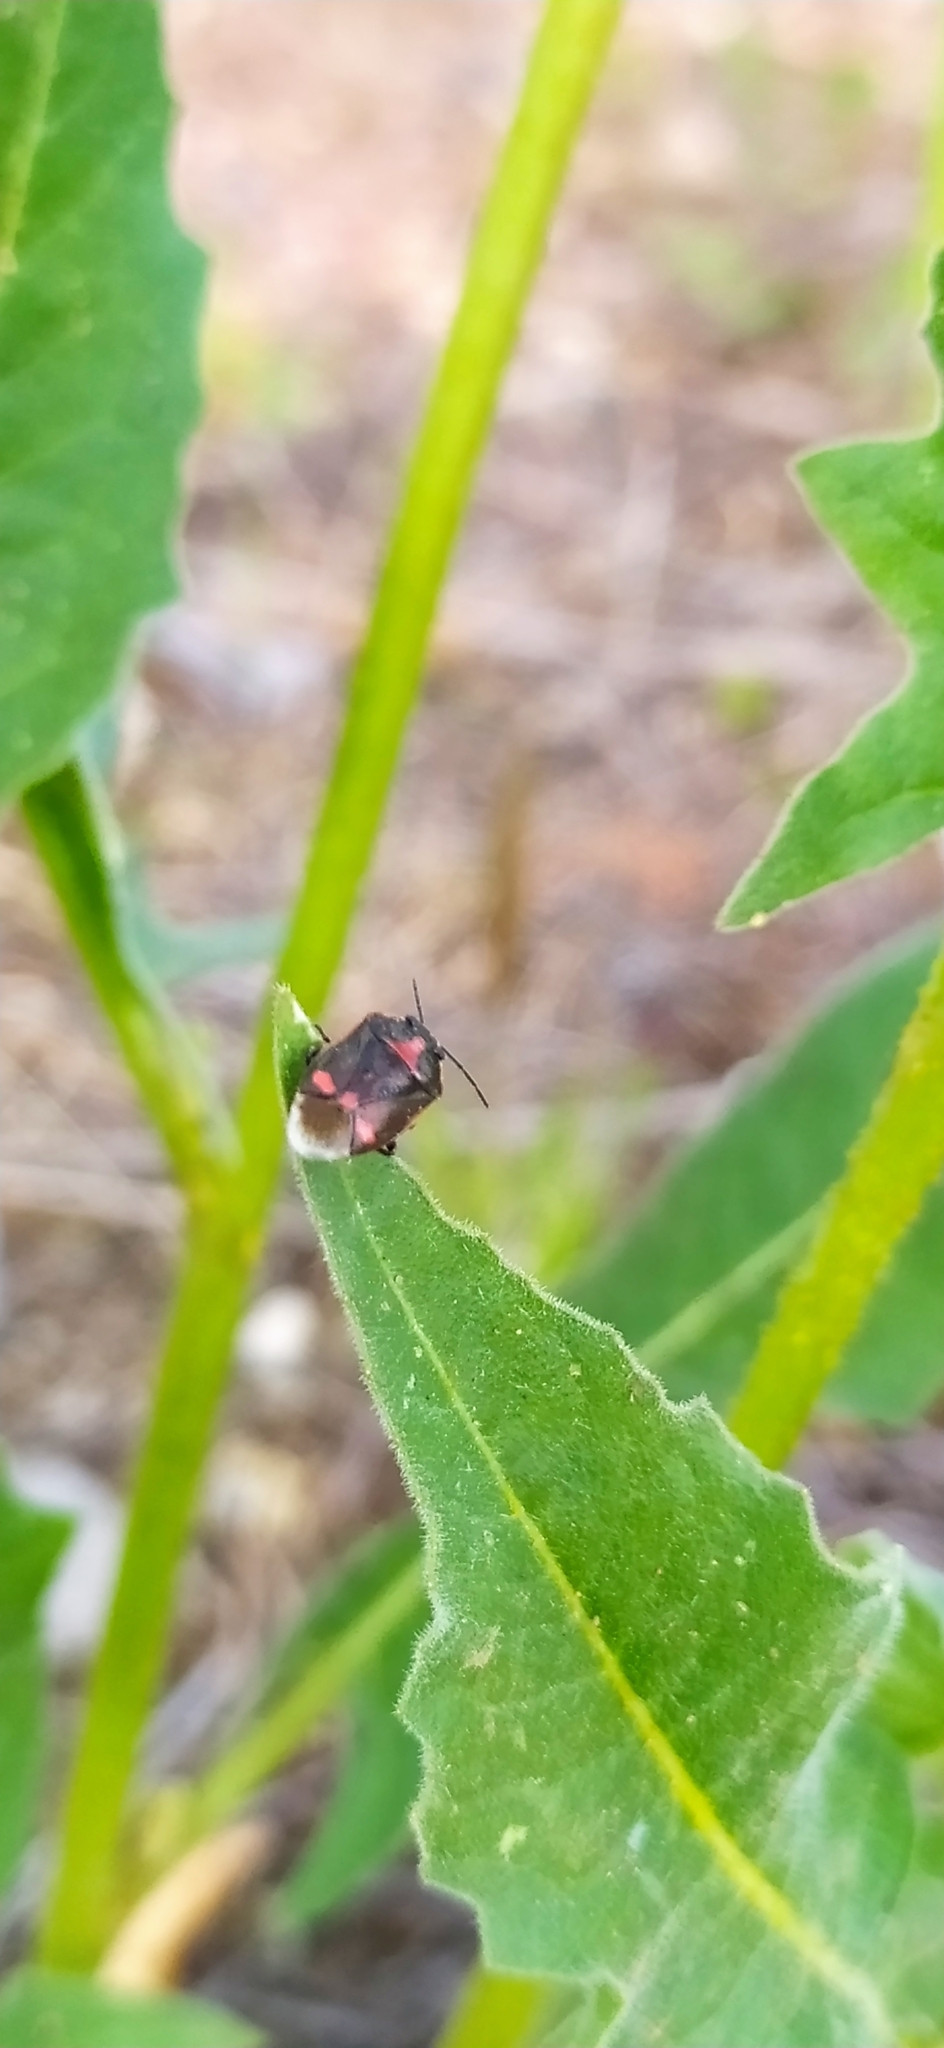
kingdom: Animalia
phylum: Arthropoda
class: Insecta
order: Hemiptera
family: Pentatomidae
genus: Eurydema
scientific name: Eurydema oleracea
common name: Cabbage bug
